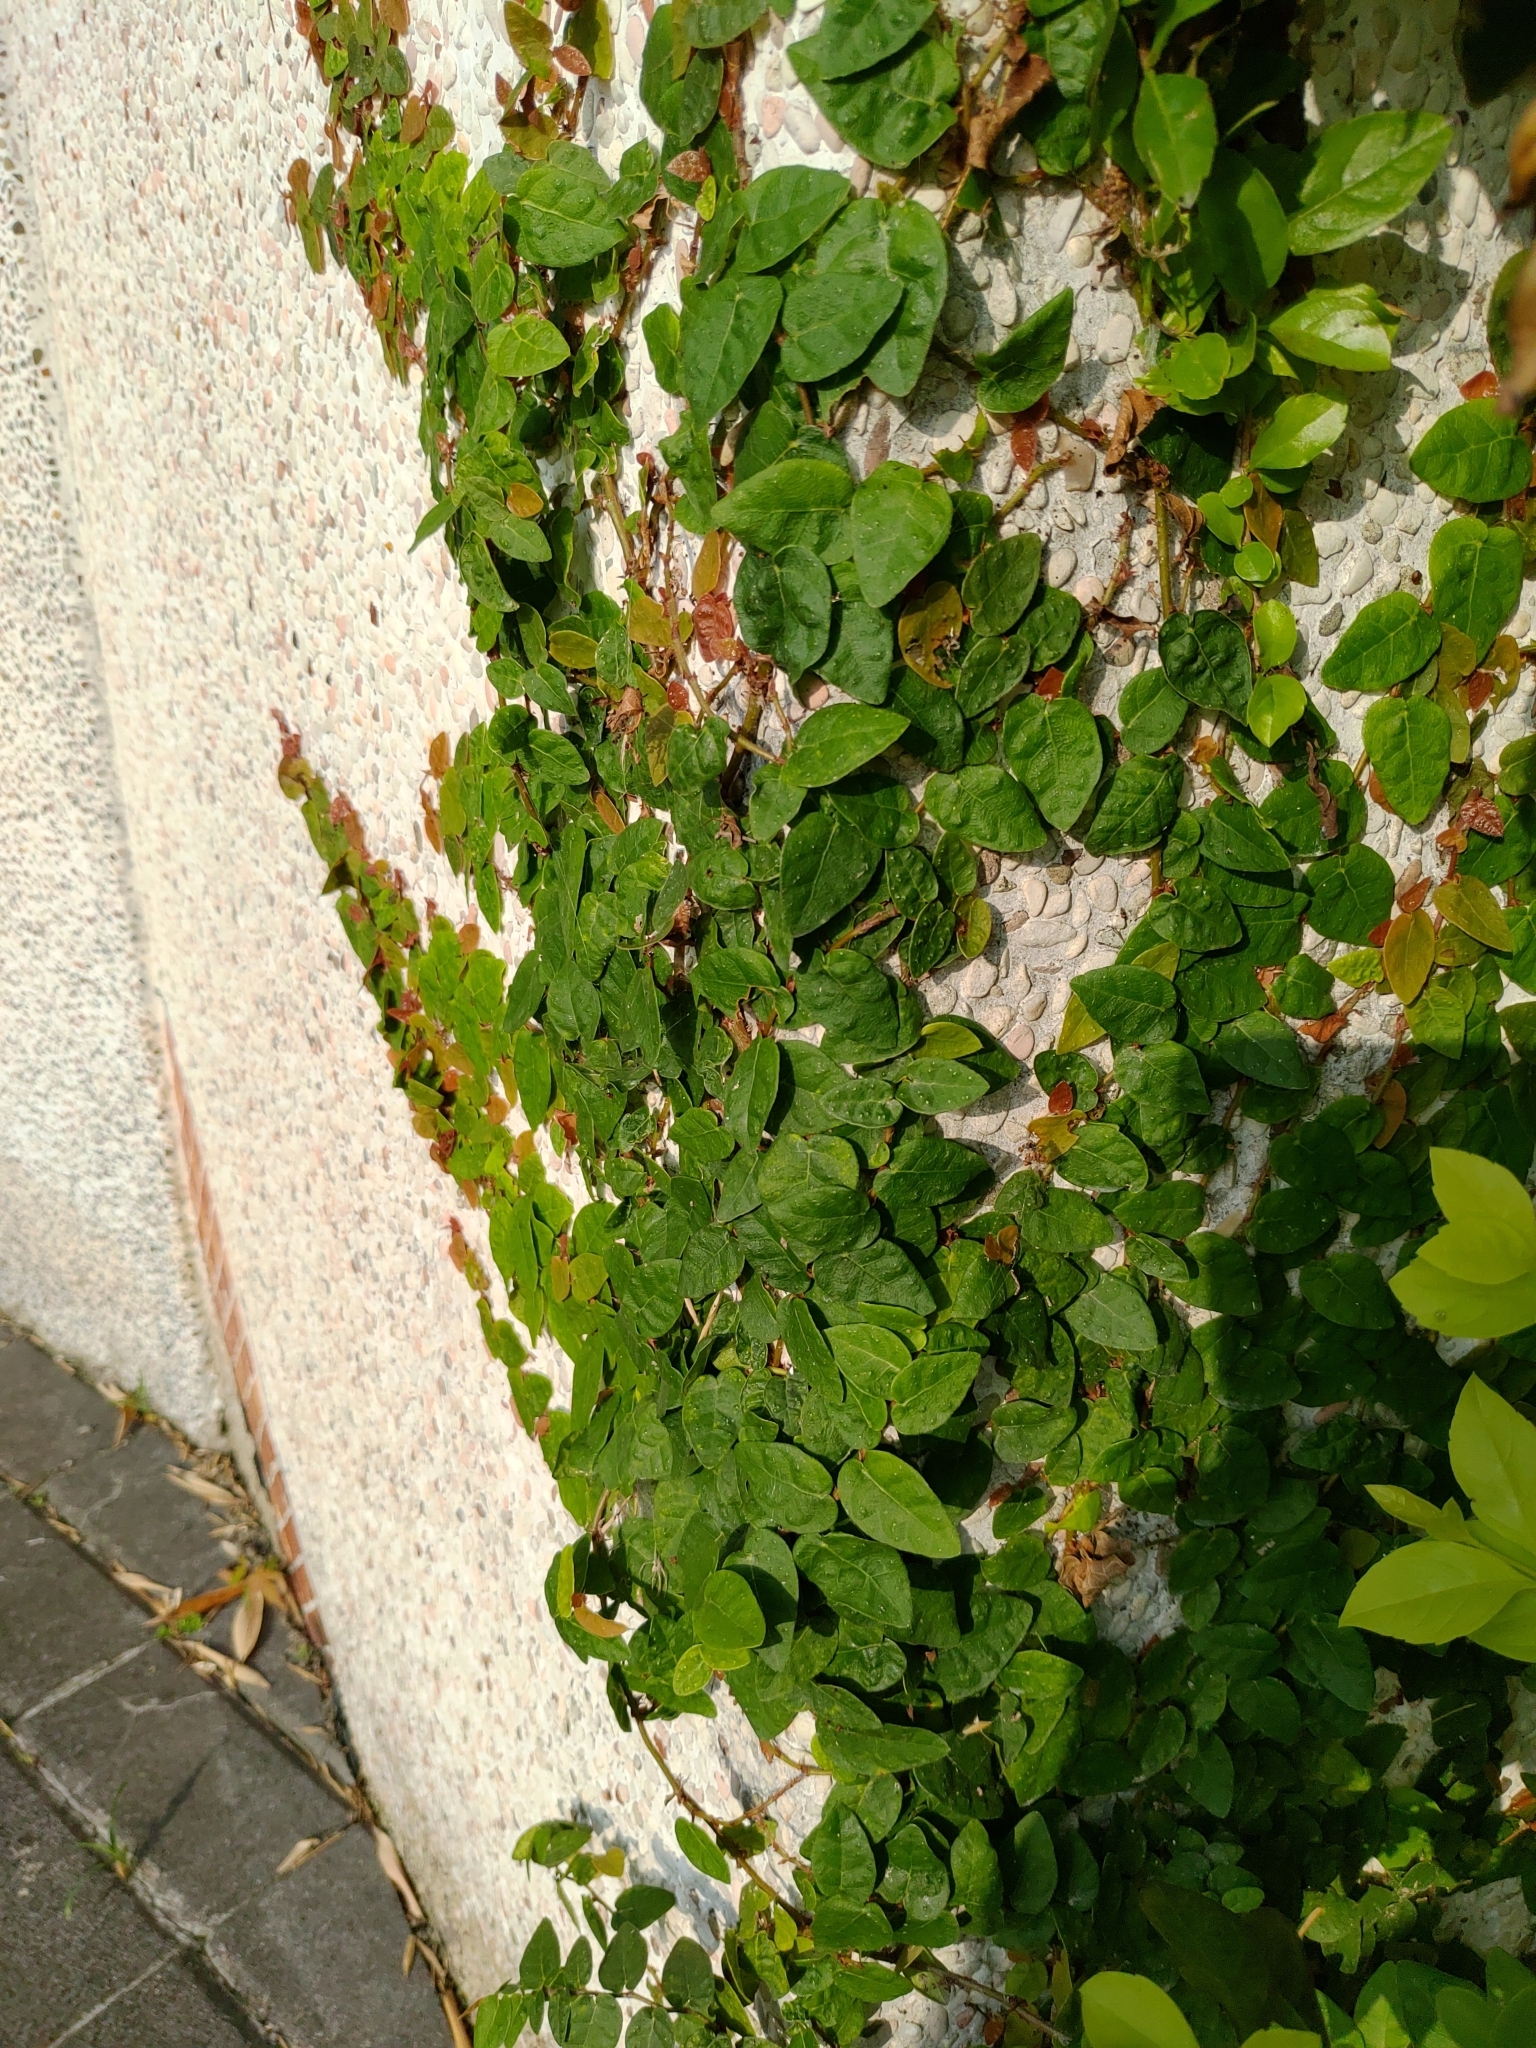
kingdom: Plantae
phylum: Tracheophyta
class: Magnoliopsida
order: Rosales
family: Moraceae
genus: Ficus
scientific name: Ficus pumila
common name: Climbingfig
